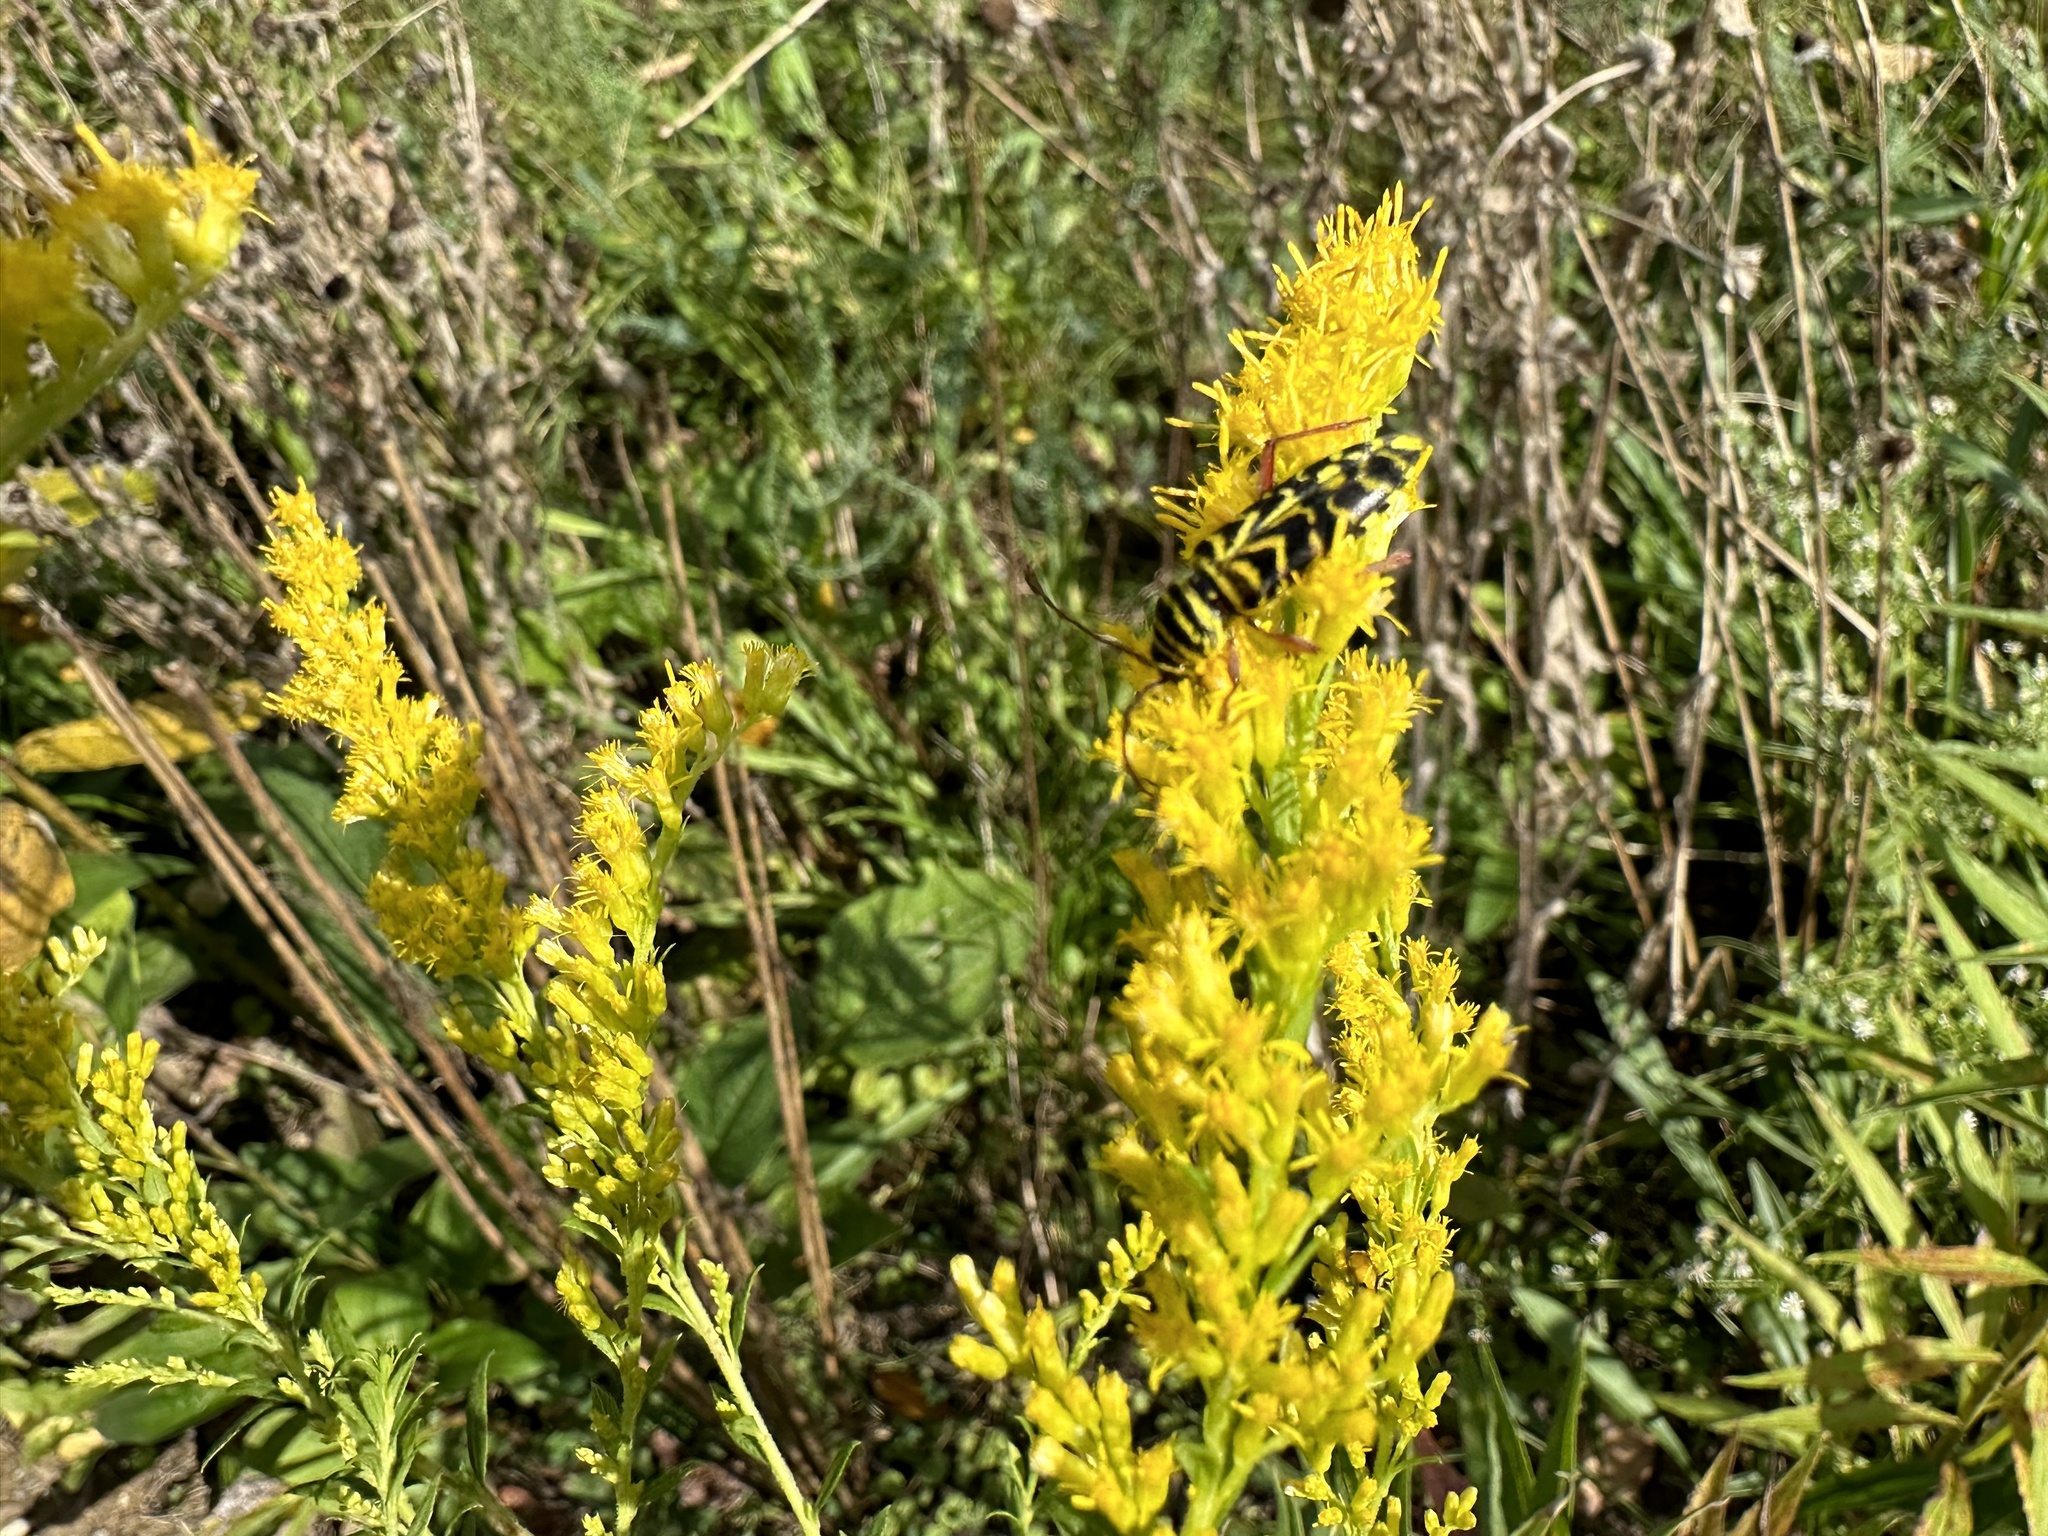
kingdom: Animalia
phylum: Arthropoda
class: Insecta
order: Coleoptera
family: Cerambycidae
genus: Megacyllene
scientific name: Megacyllene robiniae
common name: Locust borer
